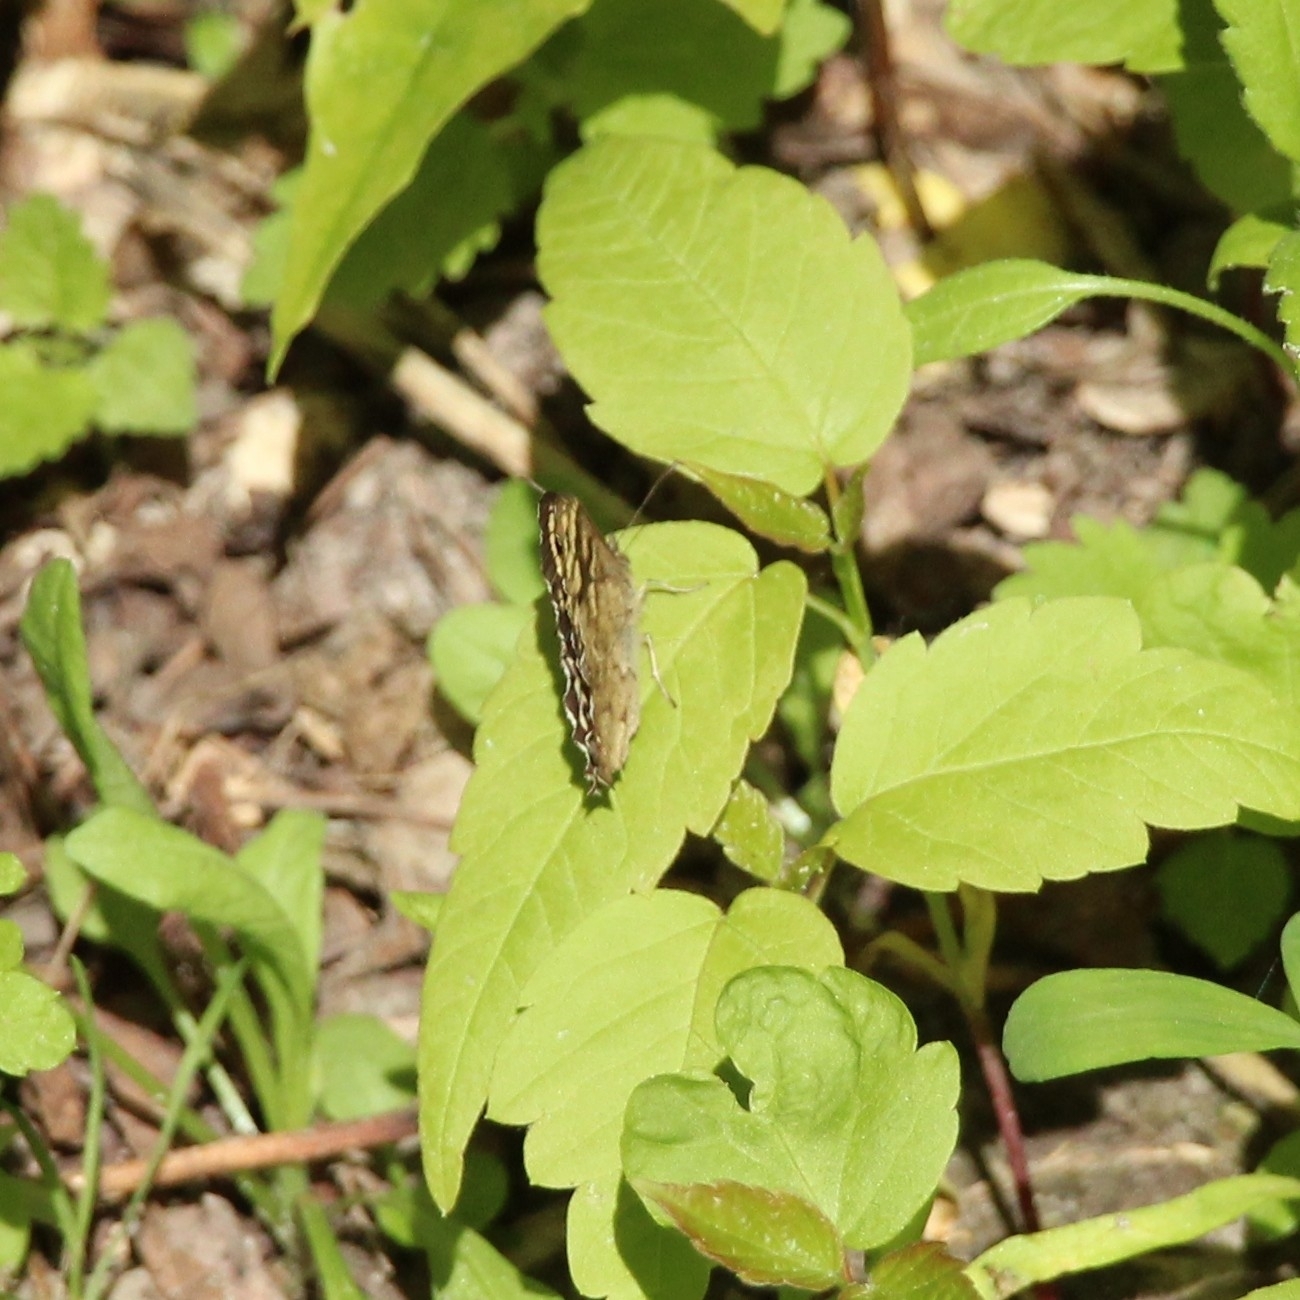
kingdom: Animalia
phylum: Arthropoda
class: Insecta
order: Lepidoptera
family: Nymphalidae
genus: Pararge
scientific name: Pararge aegeria
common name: Speckled wood
